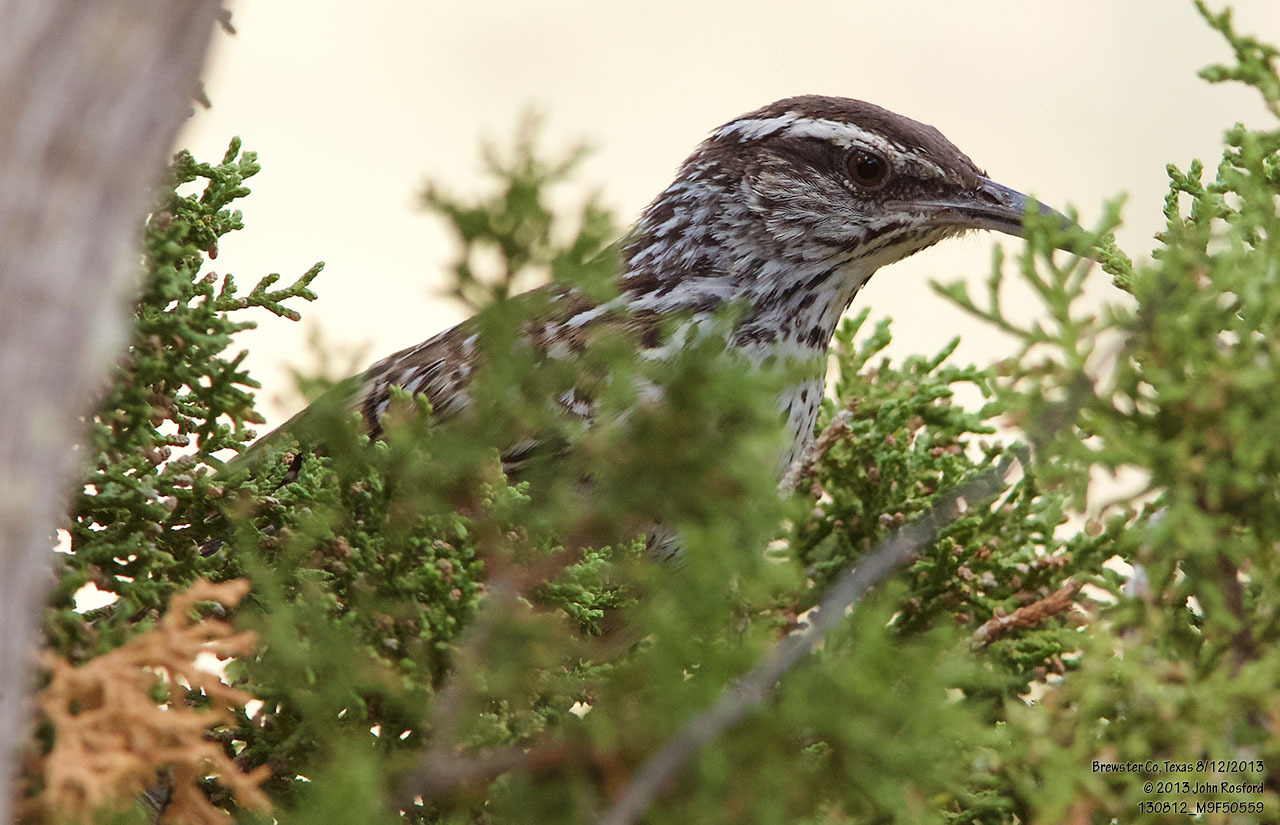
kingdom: Animalia
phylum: Chordata
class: Aves
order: Passeriformes
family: Troglodytidae
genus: Campylorhynchus
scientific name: Campylorhynchus brunneicapillus
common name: Cactus wren
